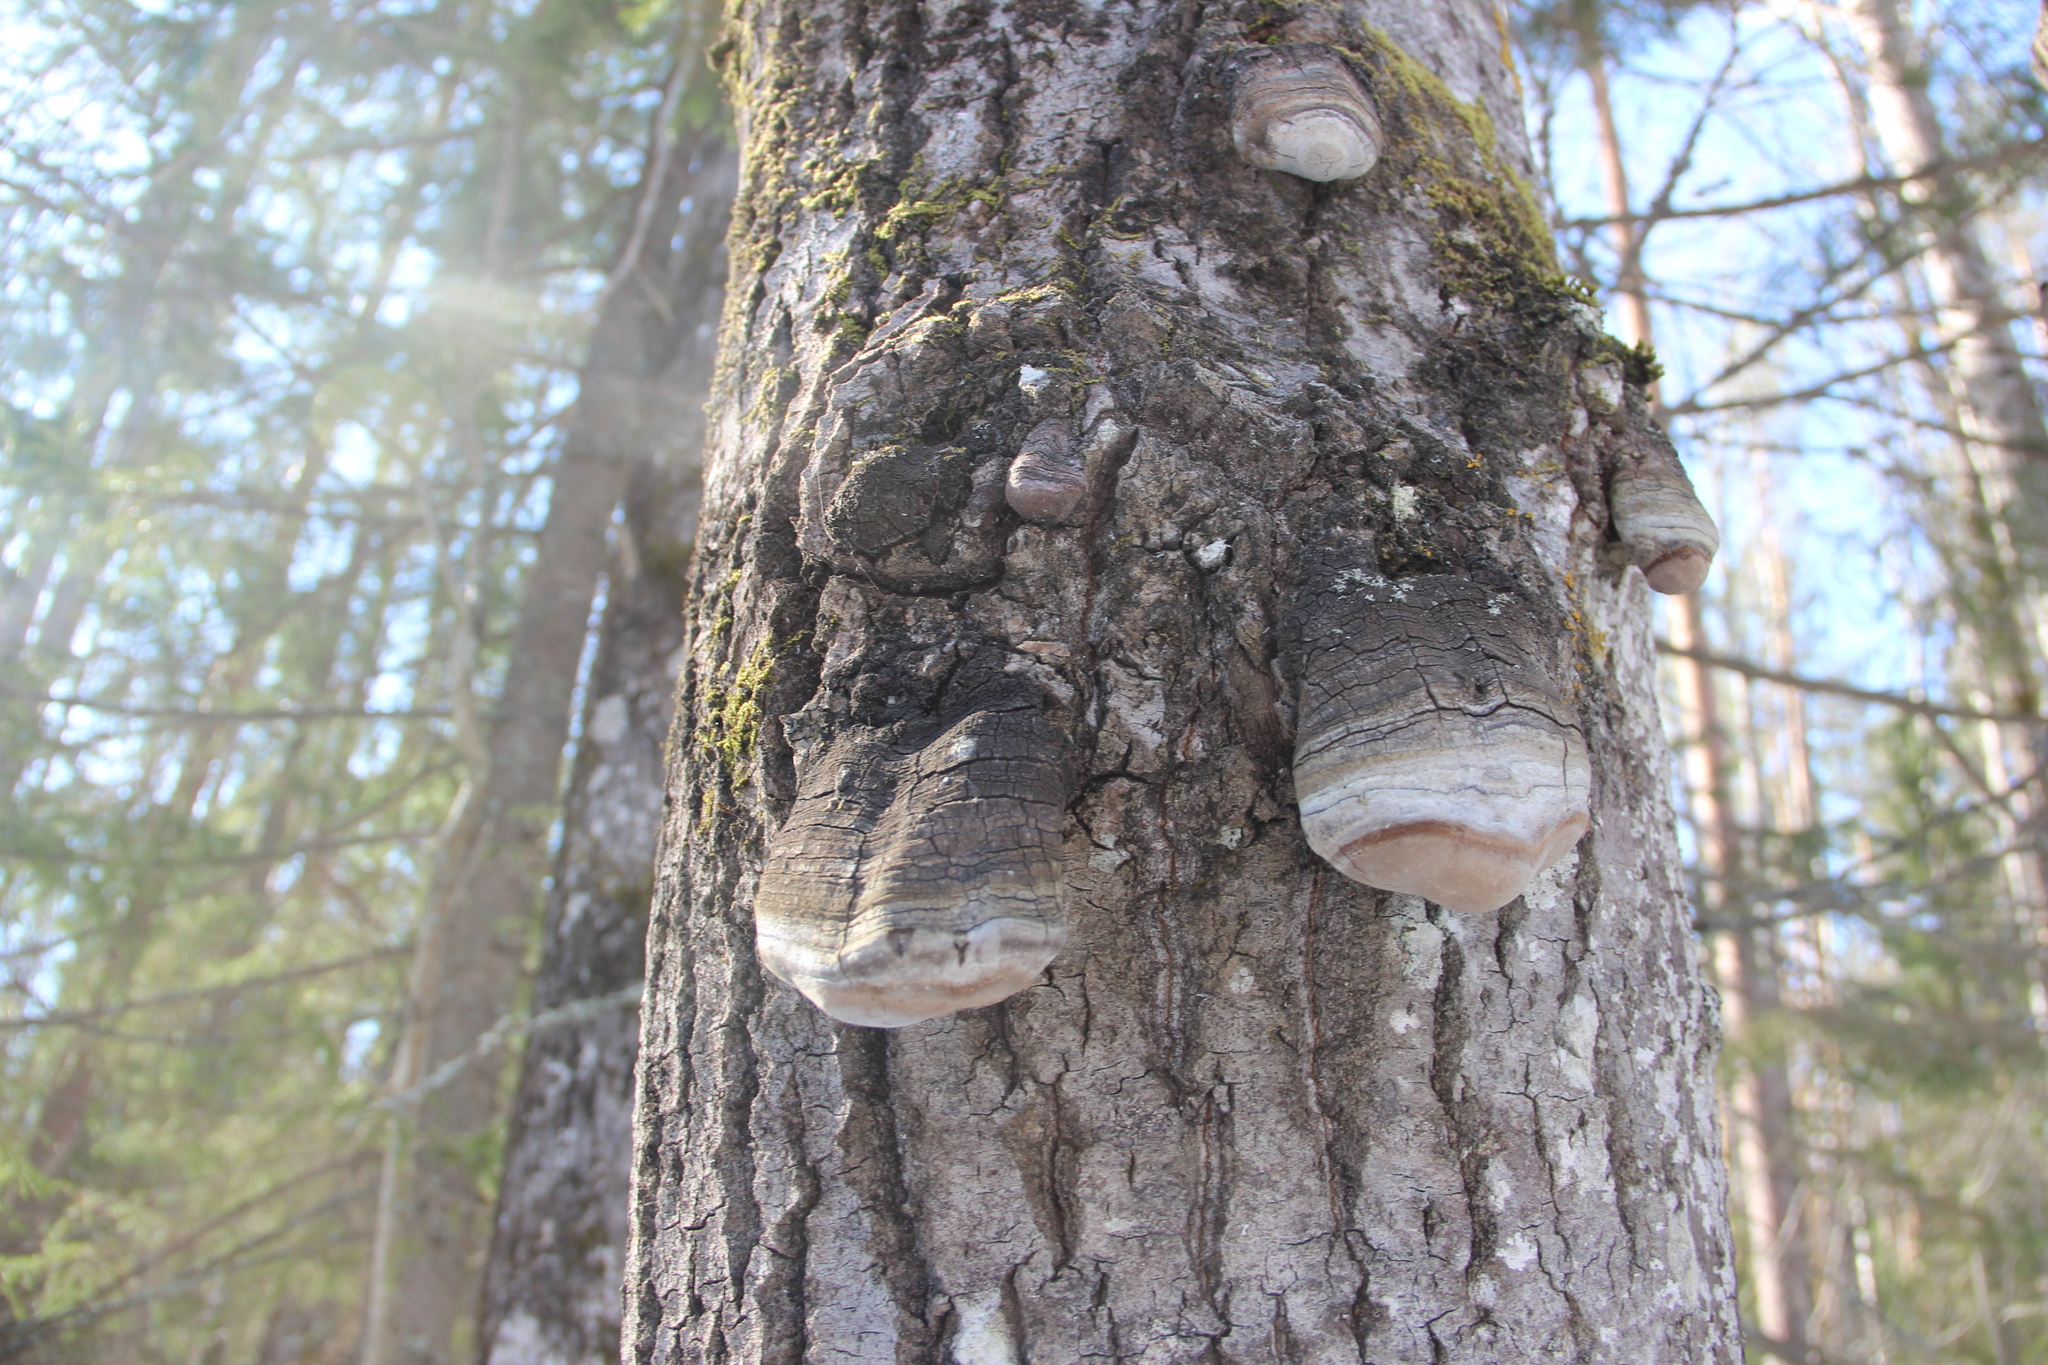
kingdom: Fungi
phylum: Basidiomycota
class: Agaricomycetes
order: Hymenochaetales
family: Hymenochaetaceae
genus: Phellinus
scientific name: Phellinus tremulae
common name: Aspen bracket
